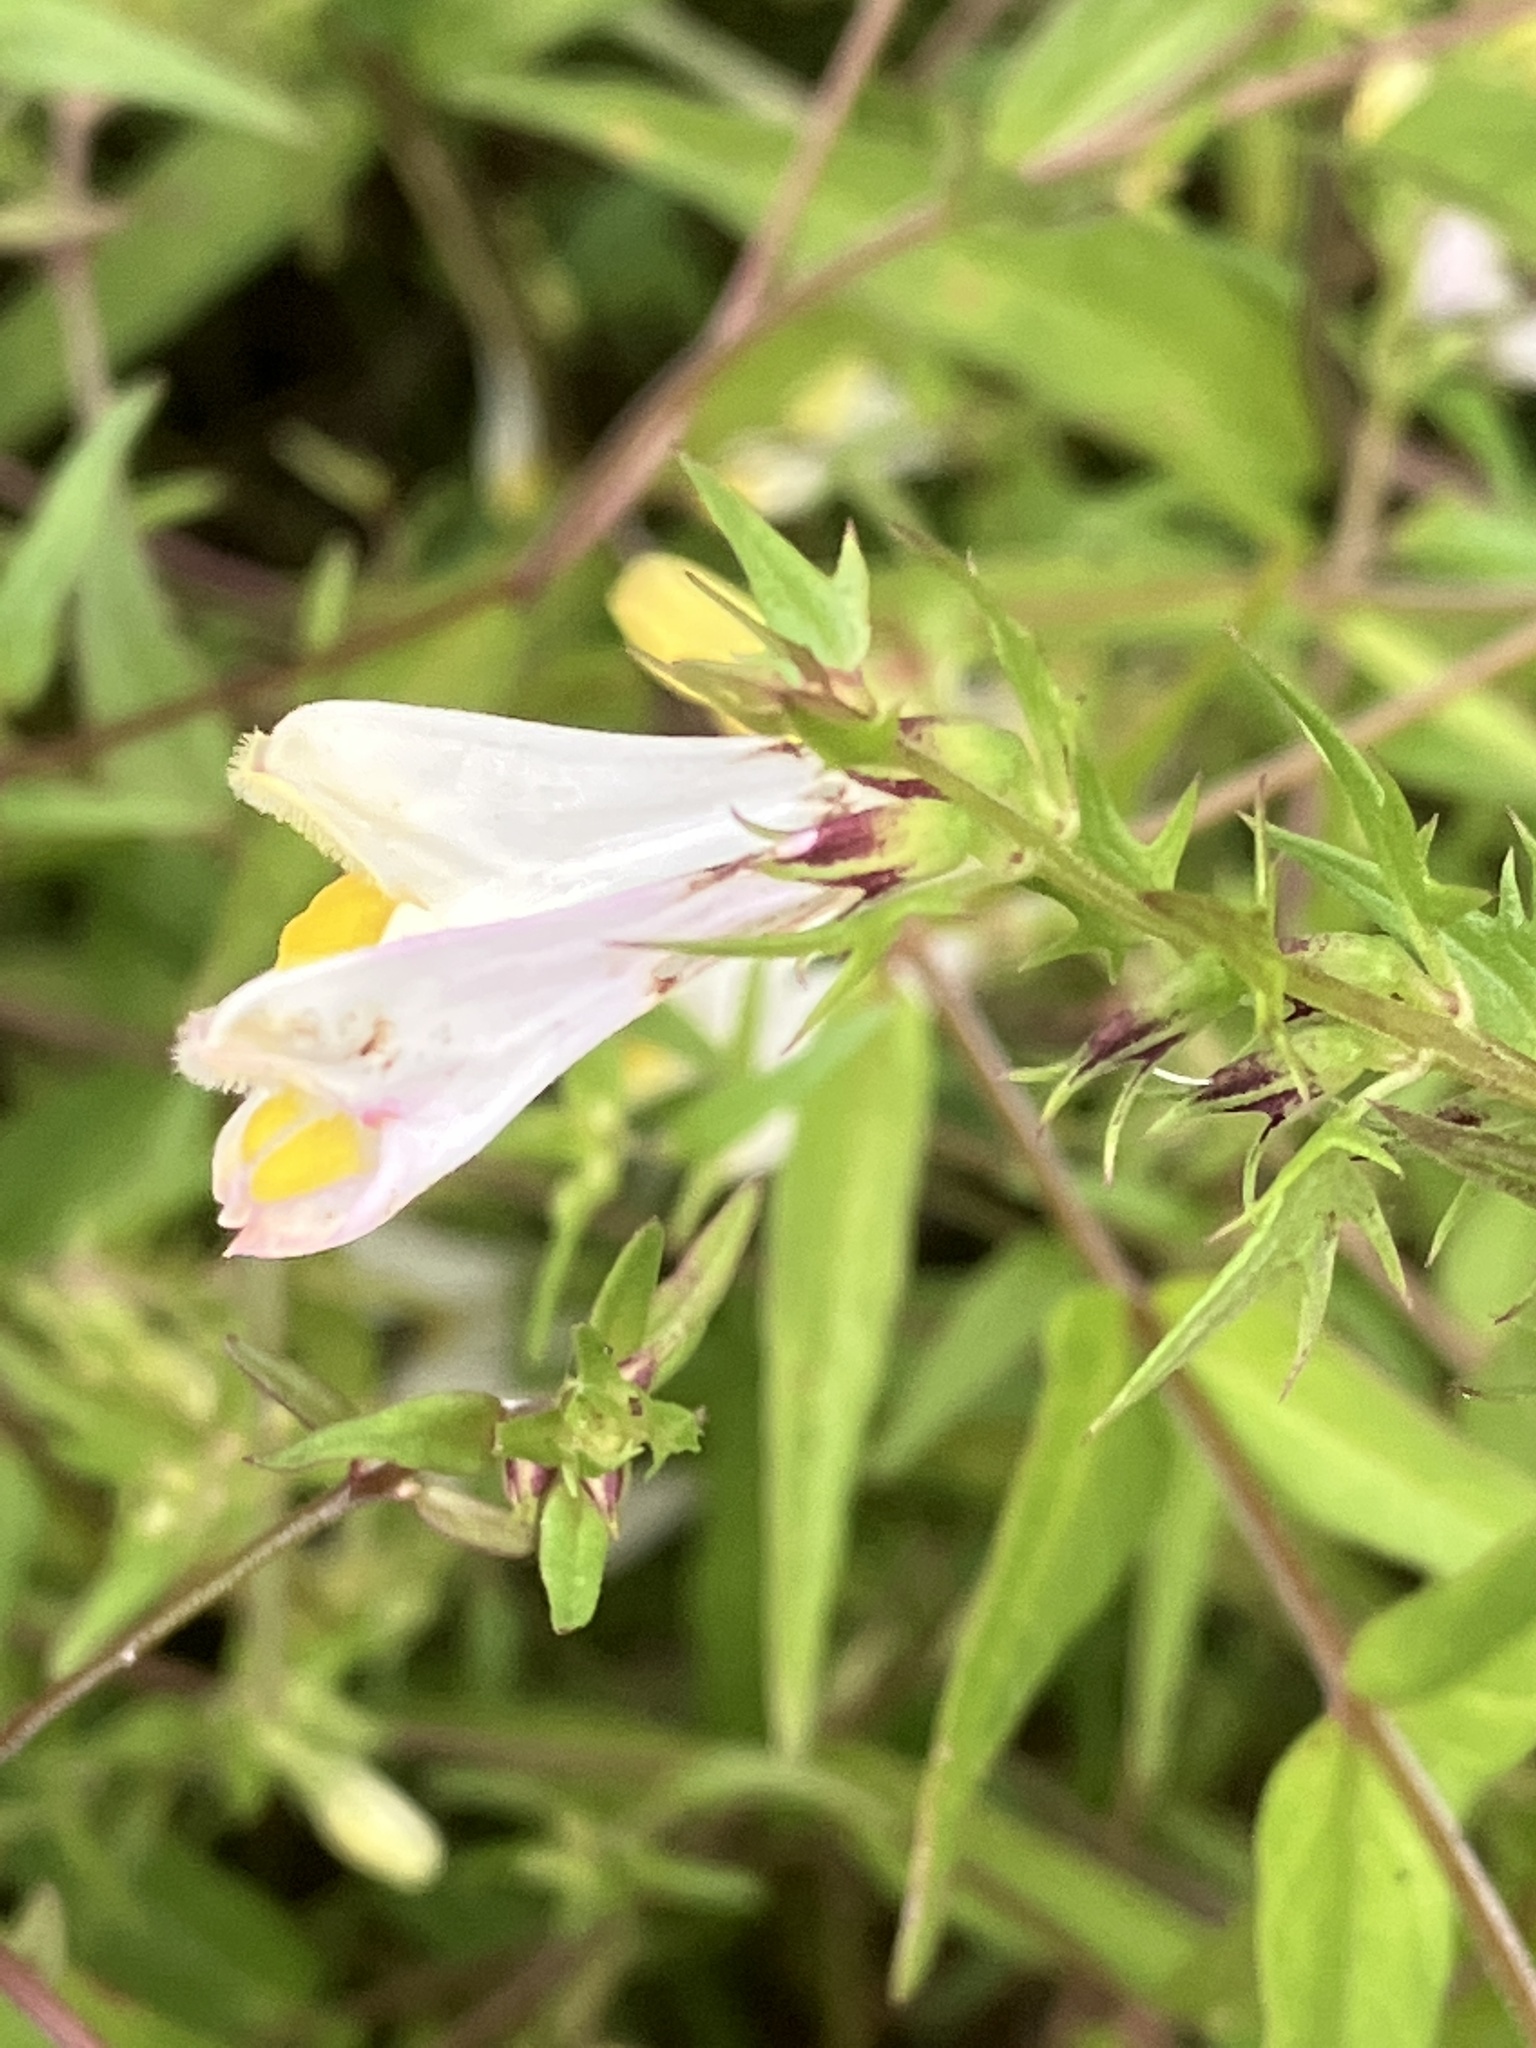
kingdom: Plantae
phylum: Tracheophyta
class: Magnoliopsida
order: Lamiales
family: Orobanchaceae
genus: Melampyrum
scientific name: Melampyrum pratense
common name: Common cow-wheat
